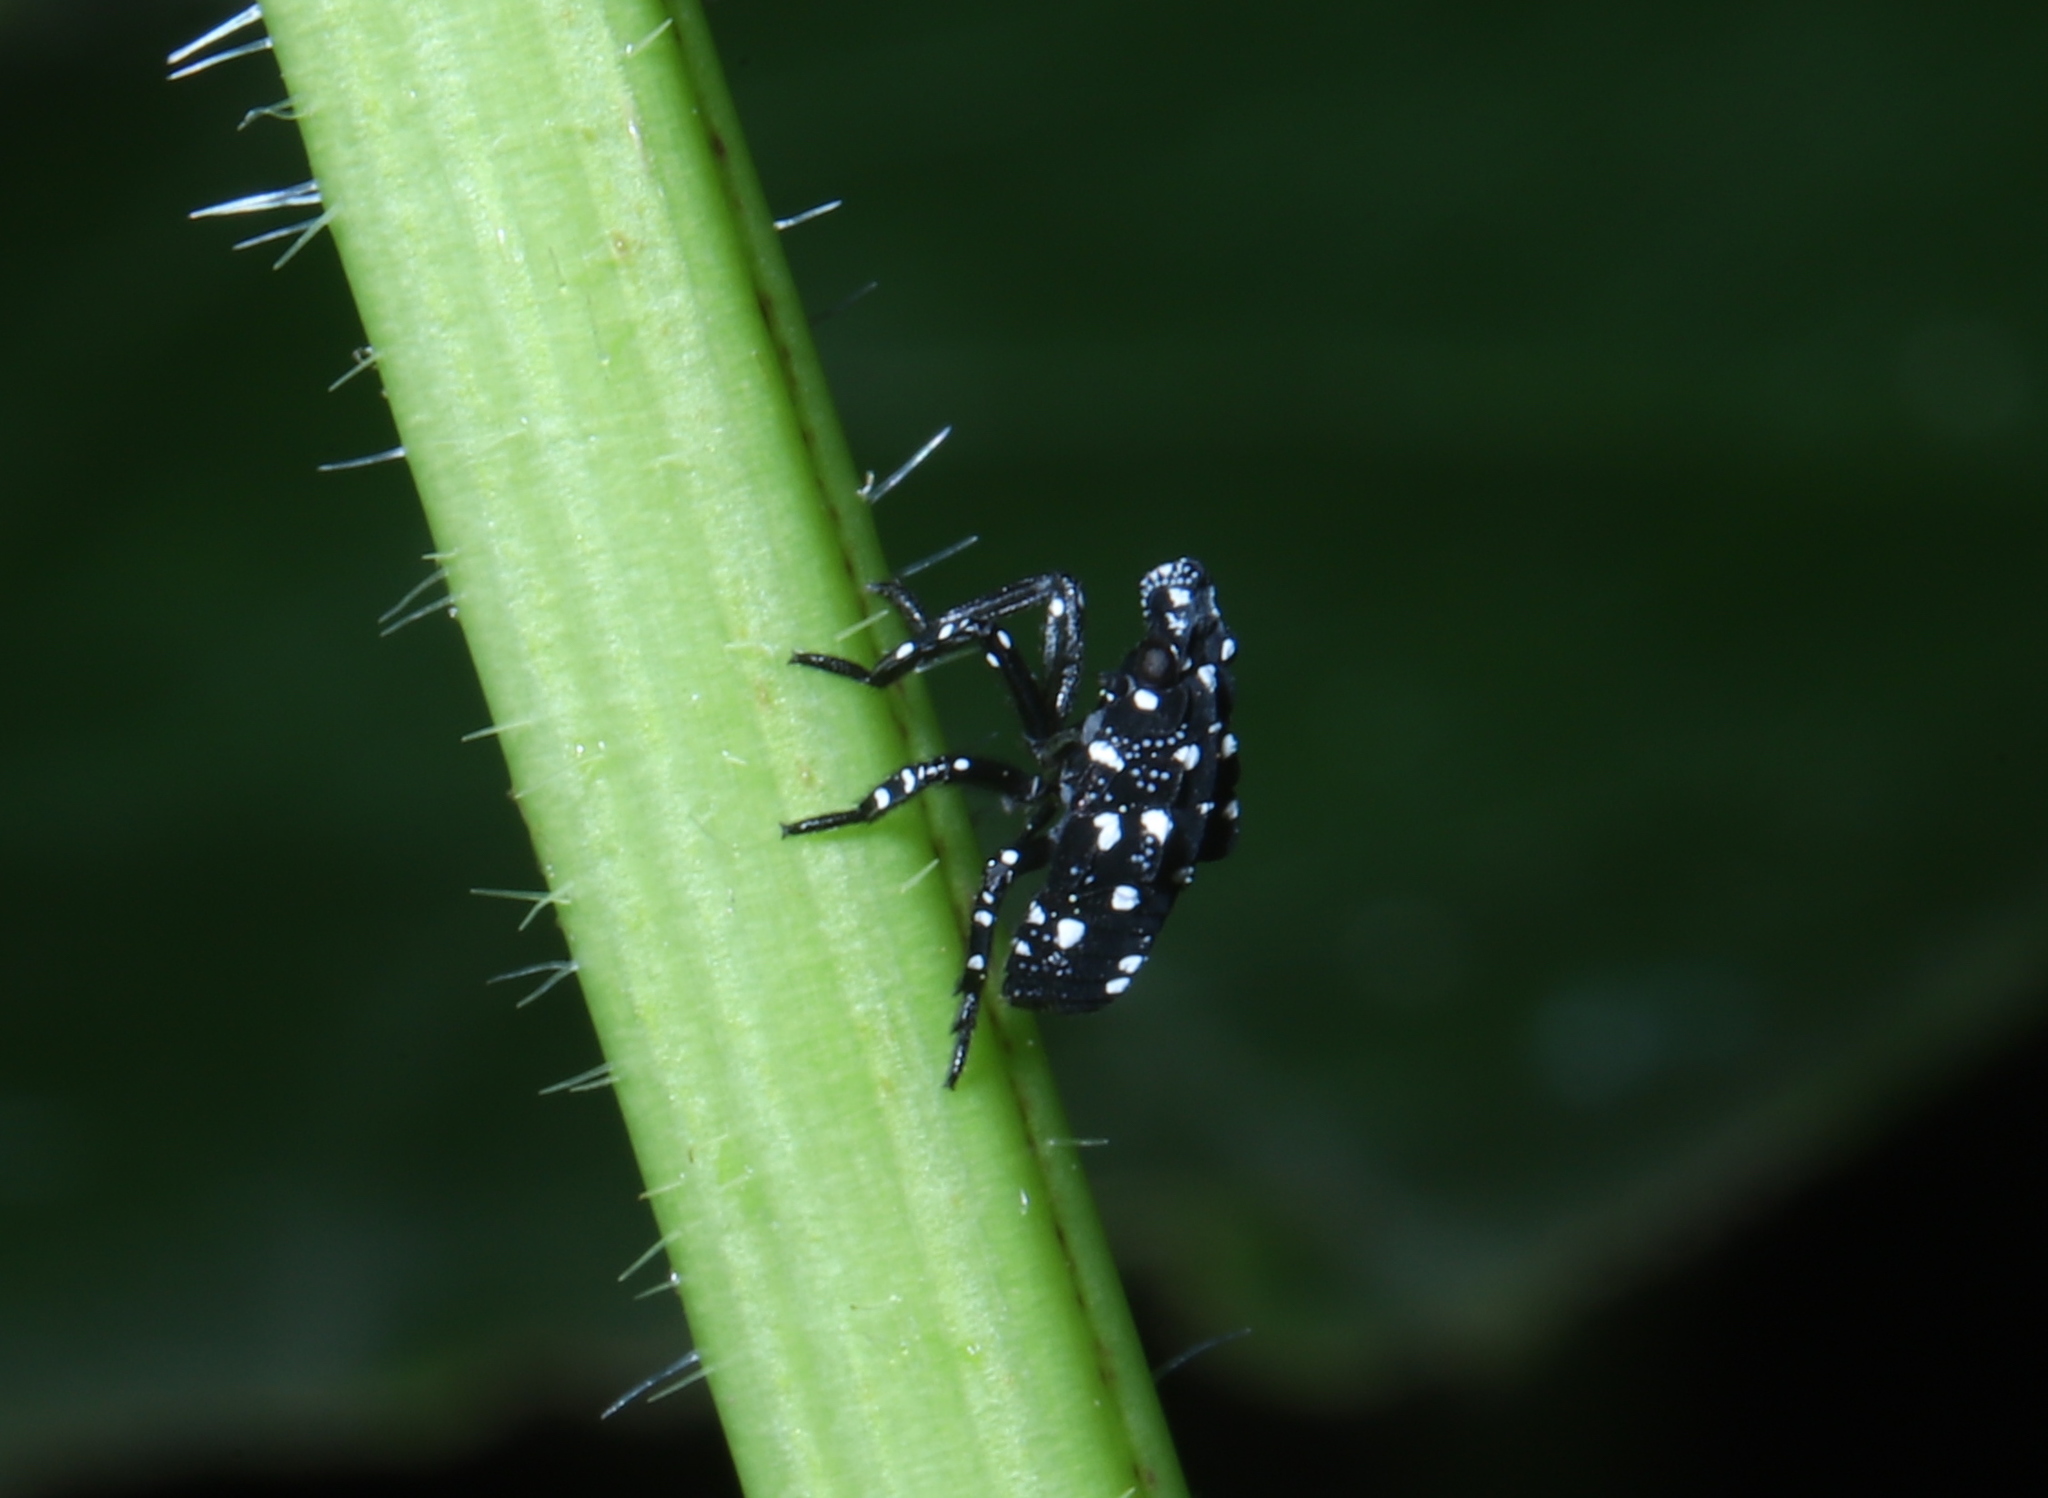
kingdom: Animalia
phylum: Arthropoda
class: Insecta
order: Hemiptera
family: Fulgoridae
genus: Lycorma
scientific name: Lycorma delicatula
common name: Spotted lanternfly
